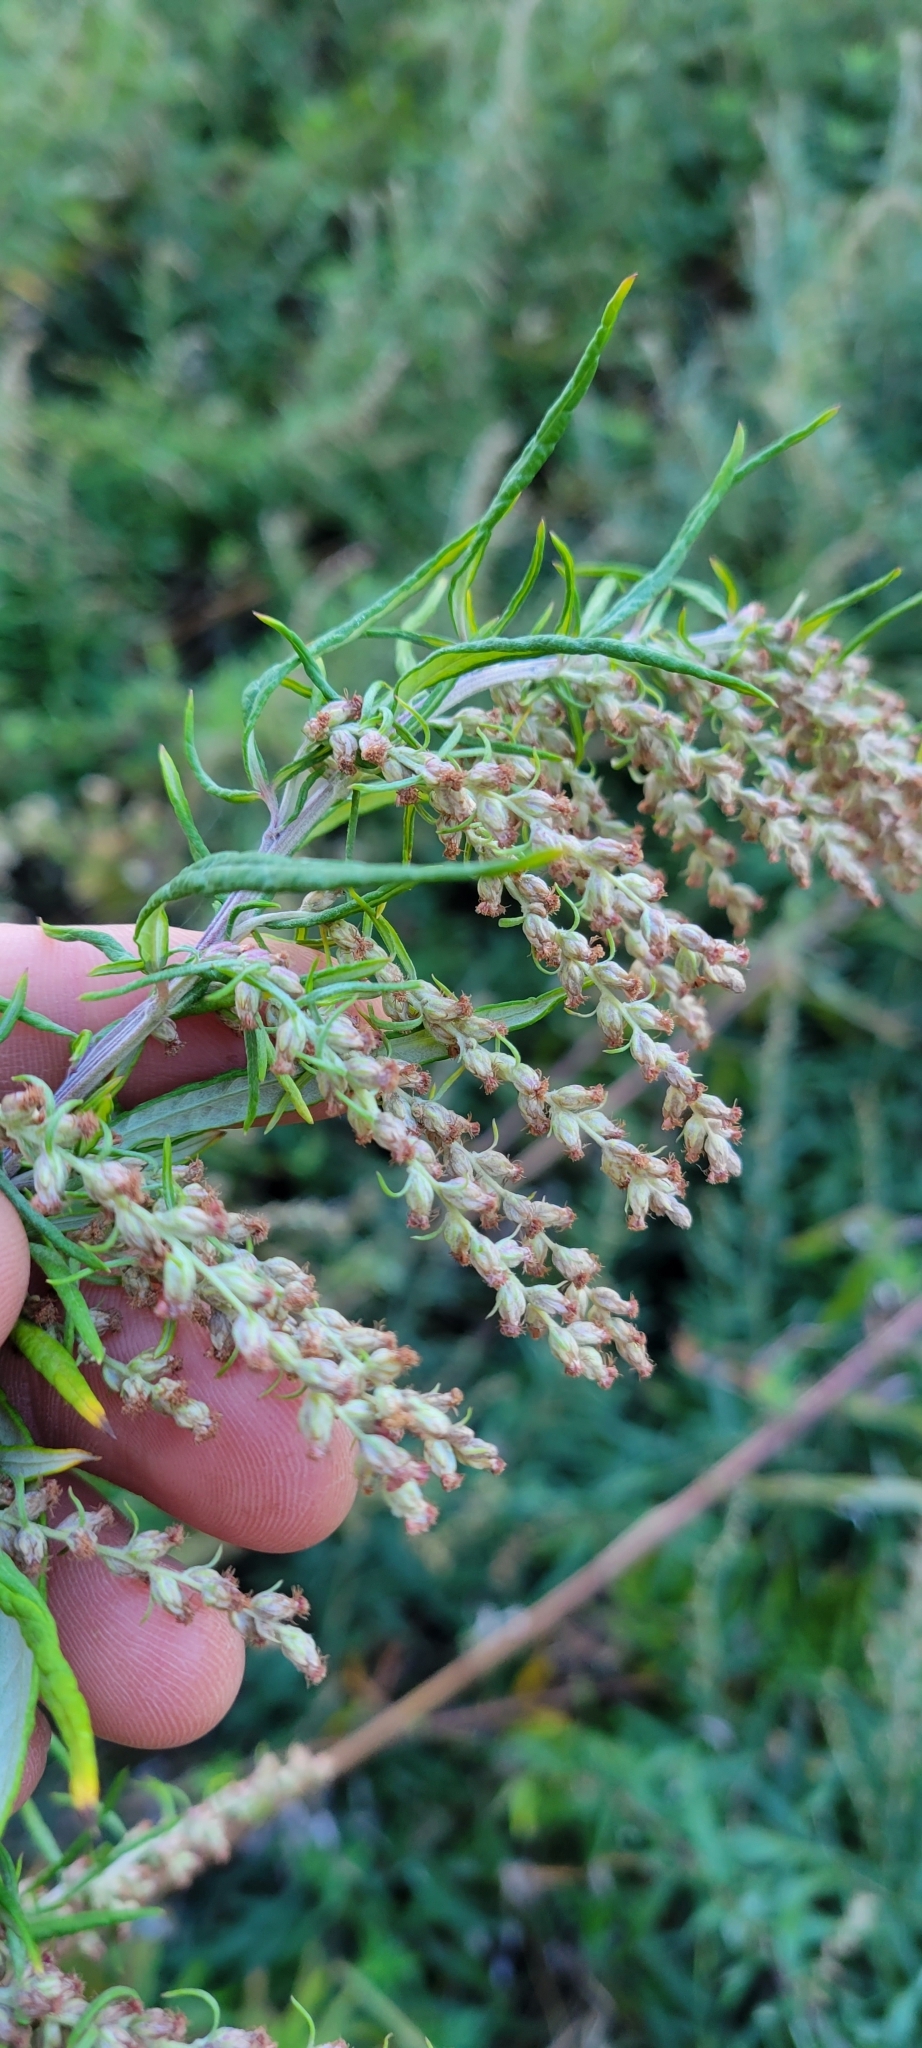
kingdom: Plantae
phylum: Tracheophyta
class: Magnoliopsida
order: Asterales
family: Asteraceae
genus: Artemisia
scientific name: Artemisia vulgaris
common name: Mugwort
